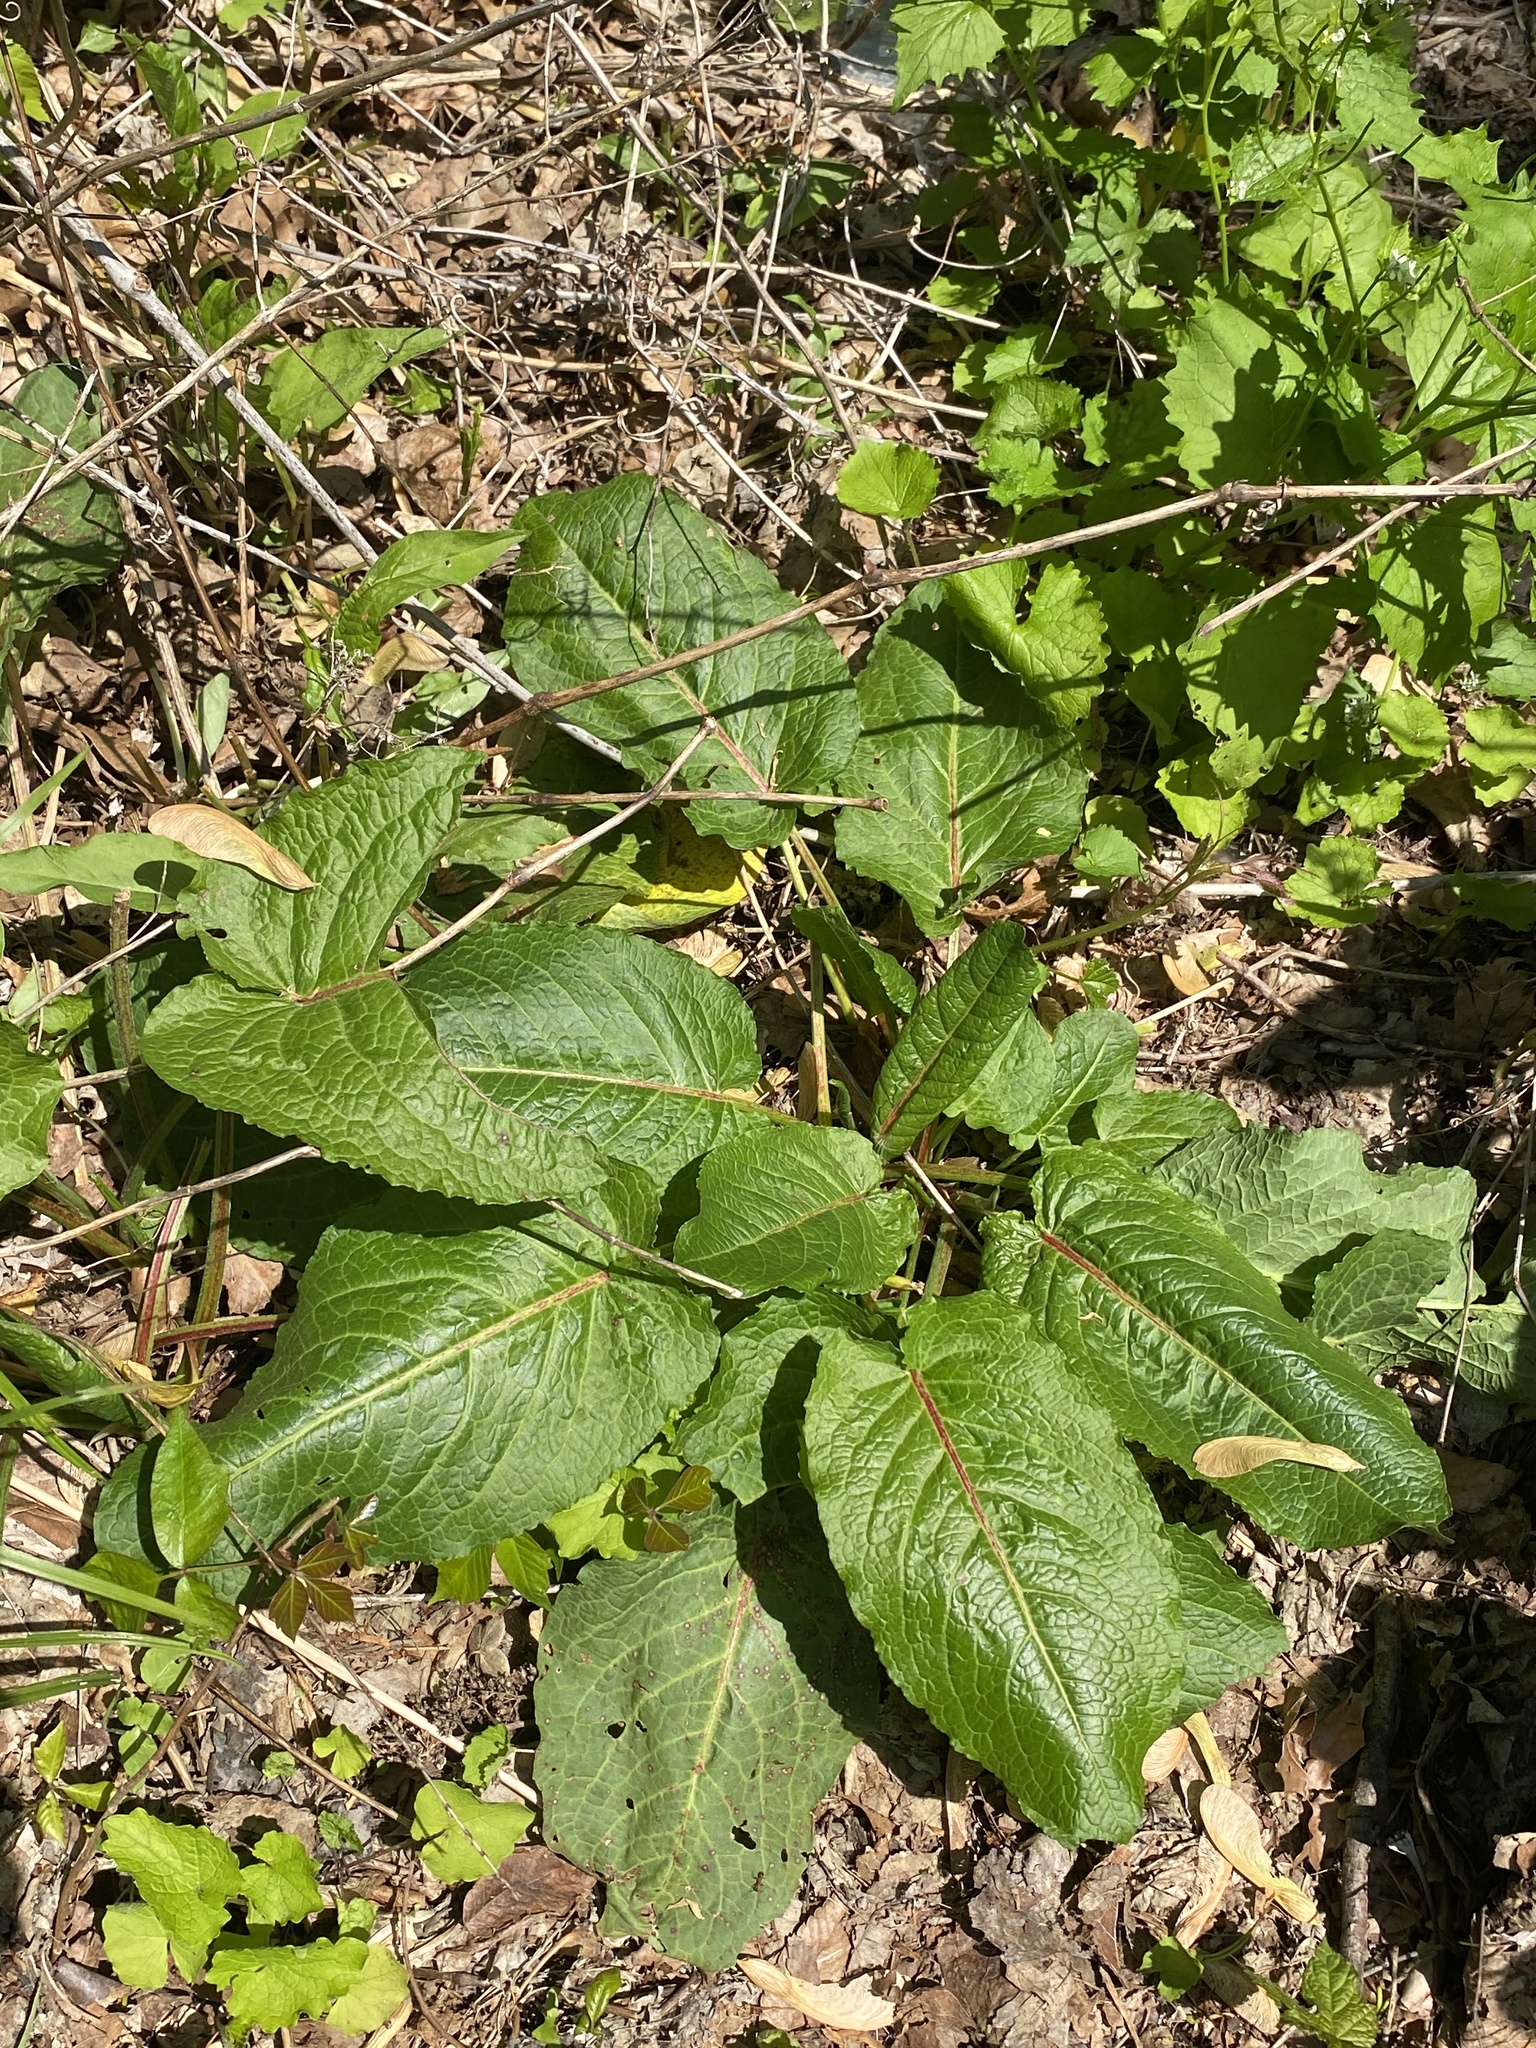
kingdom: Plantae
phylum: Tracheophyta
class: Magnoliopsida
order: Caryophyllales
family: Polygonaceae
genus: Rumex
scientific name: Rumex obtusifolius
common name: Bitter dock
